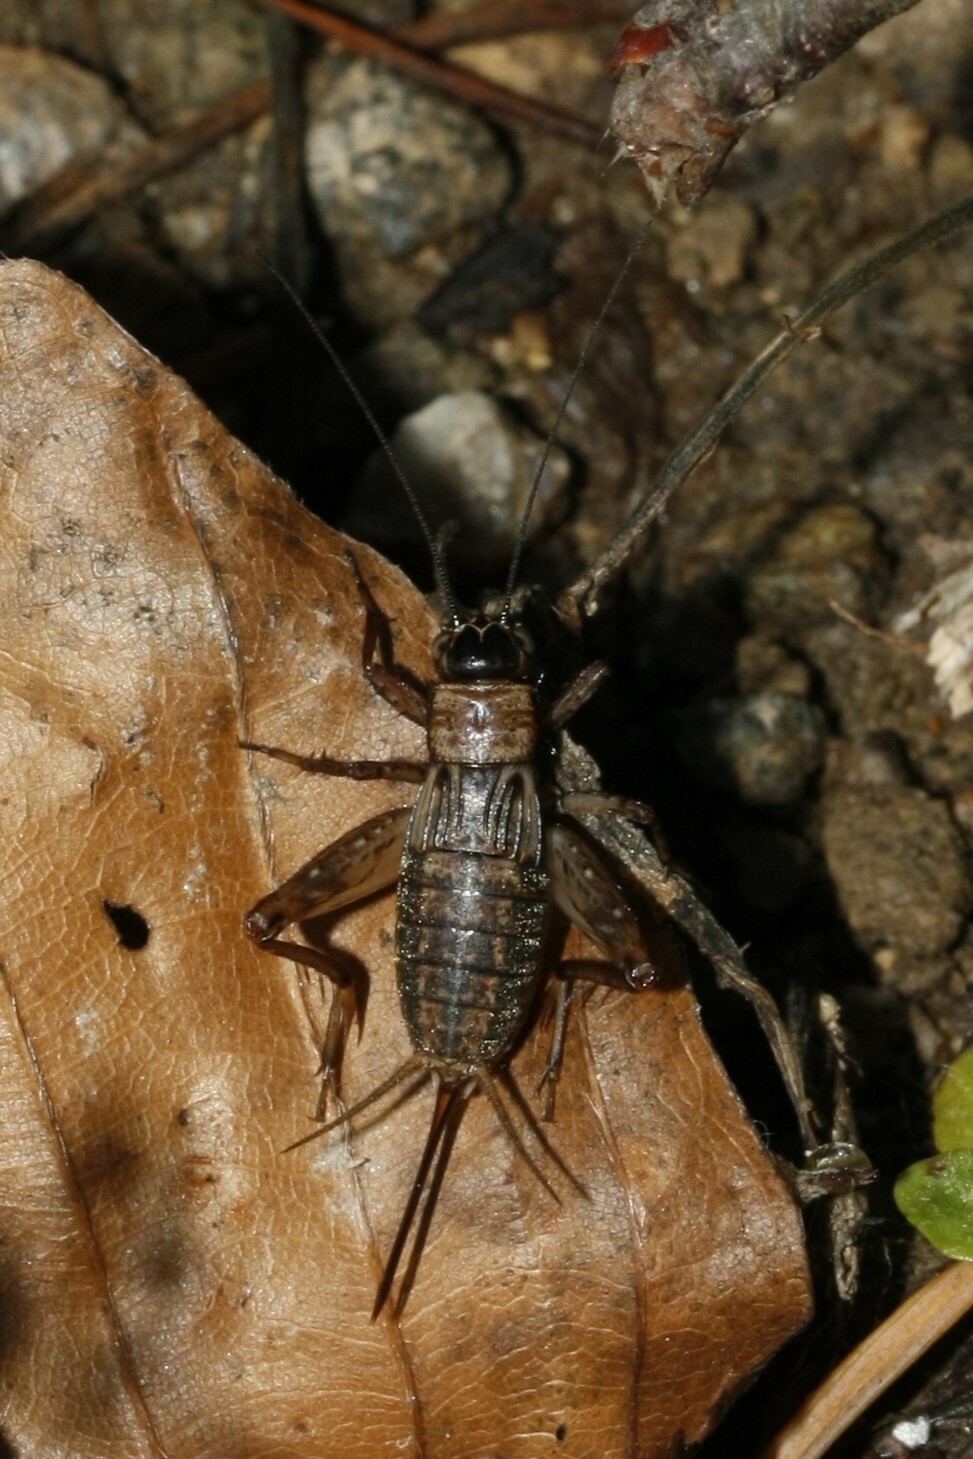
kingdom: Animalia
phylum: Arthropoda
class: Insecta
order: Orthoptera
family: Trigonidiidae
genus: Nemobius
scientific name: Nemobius sylvestris
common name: Wood-cricket
